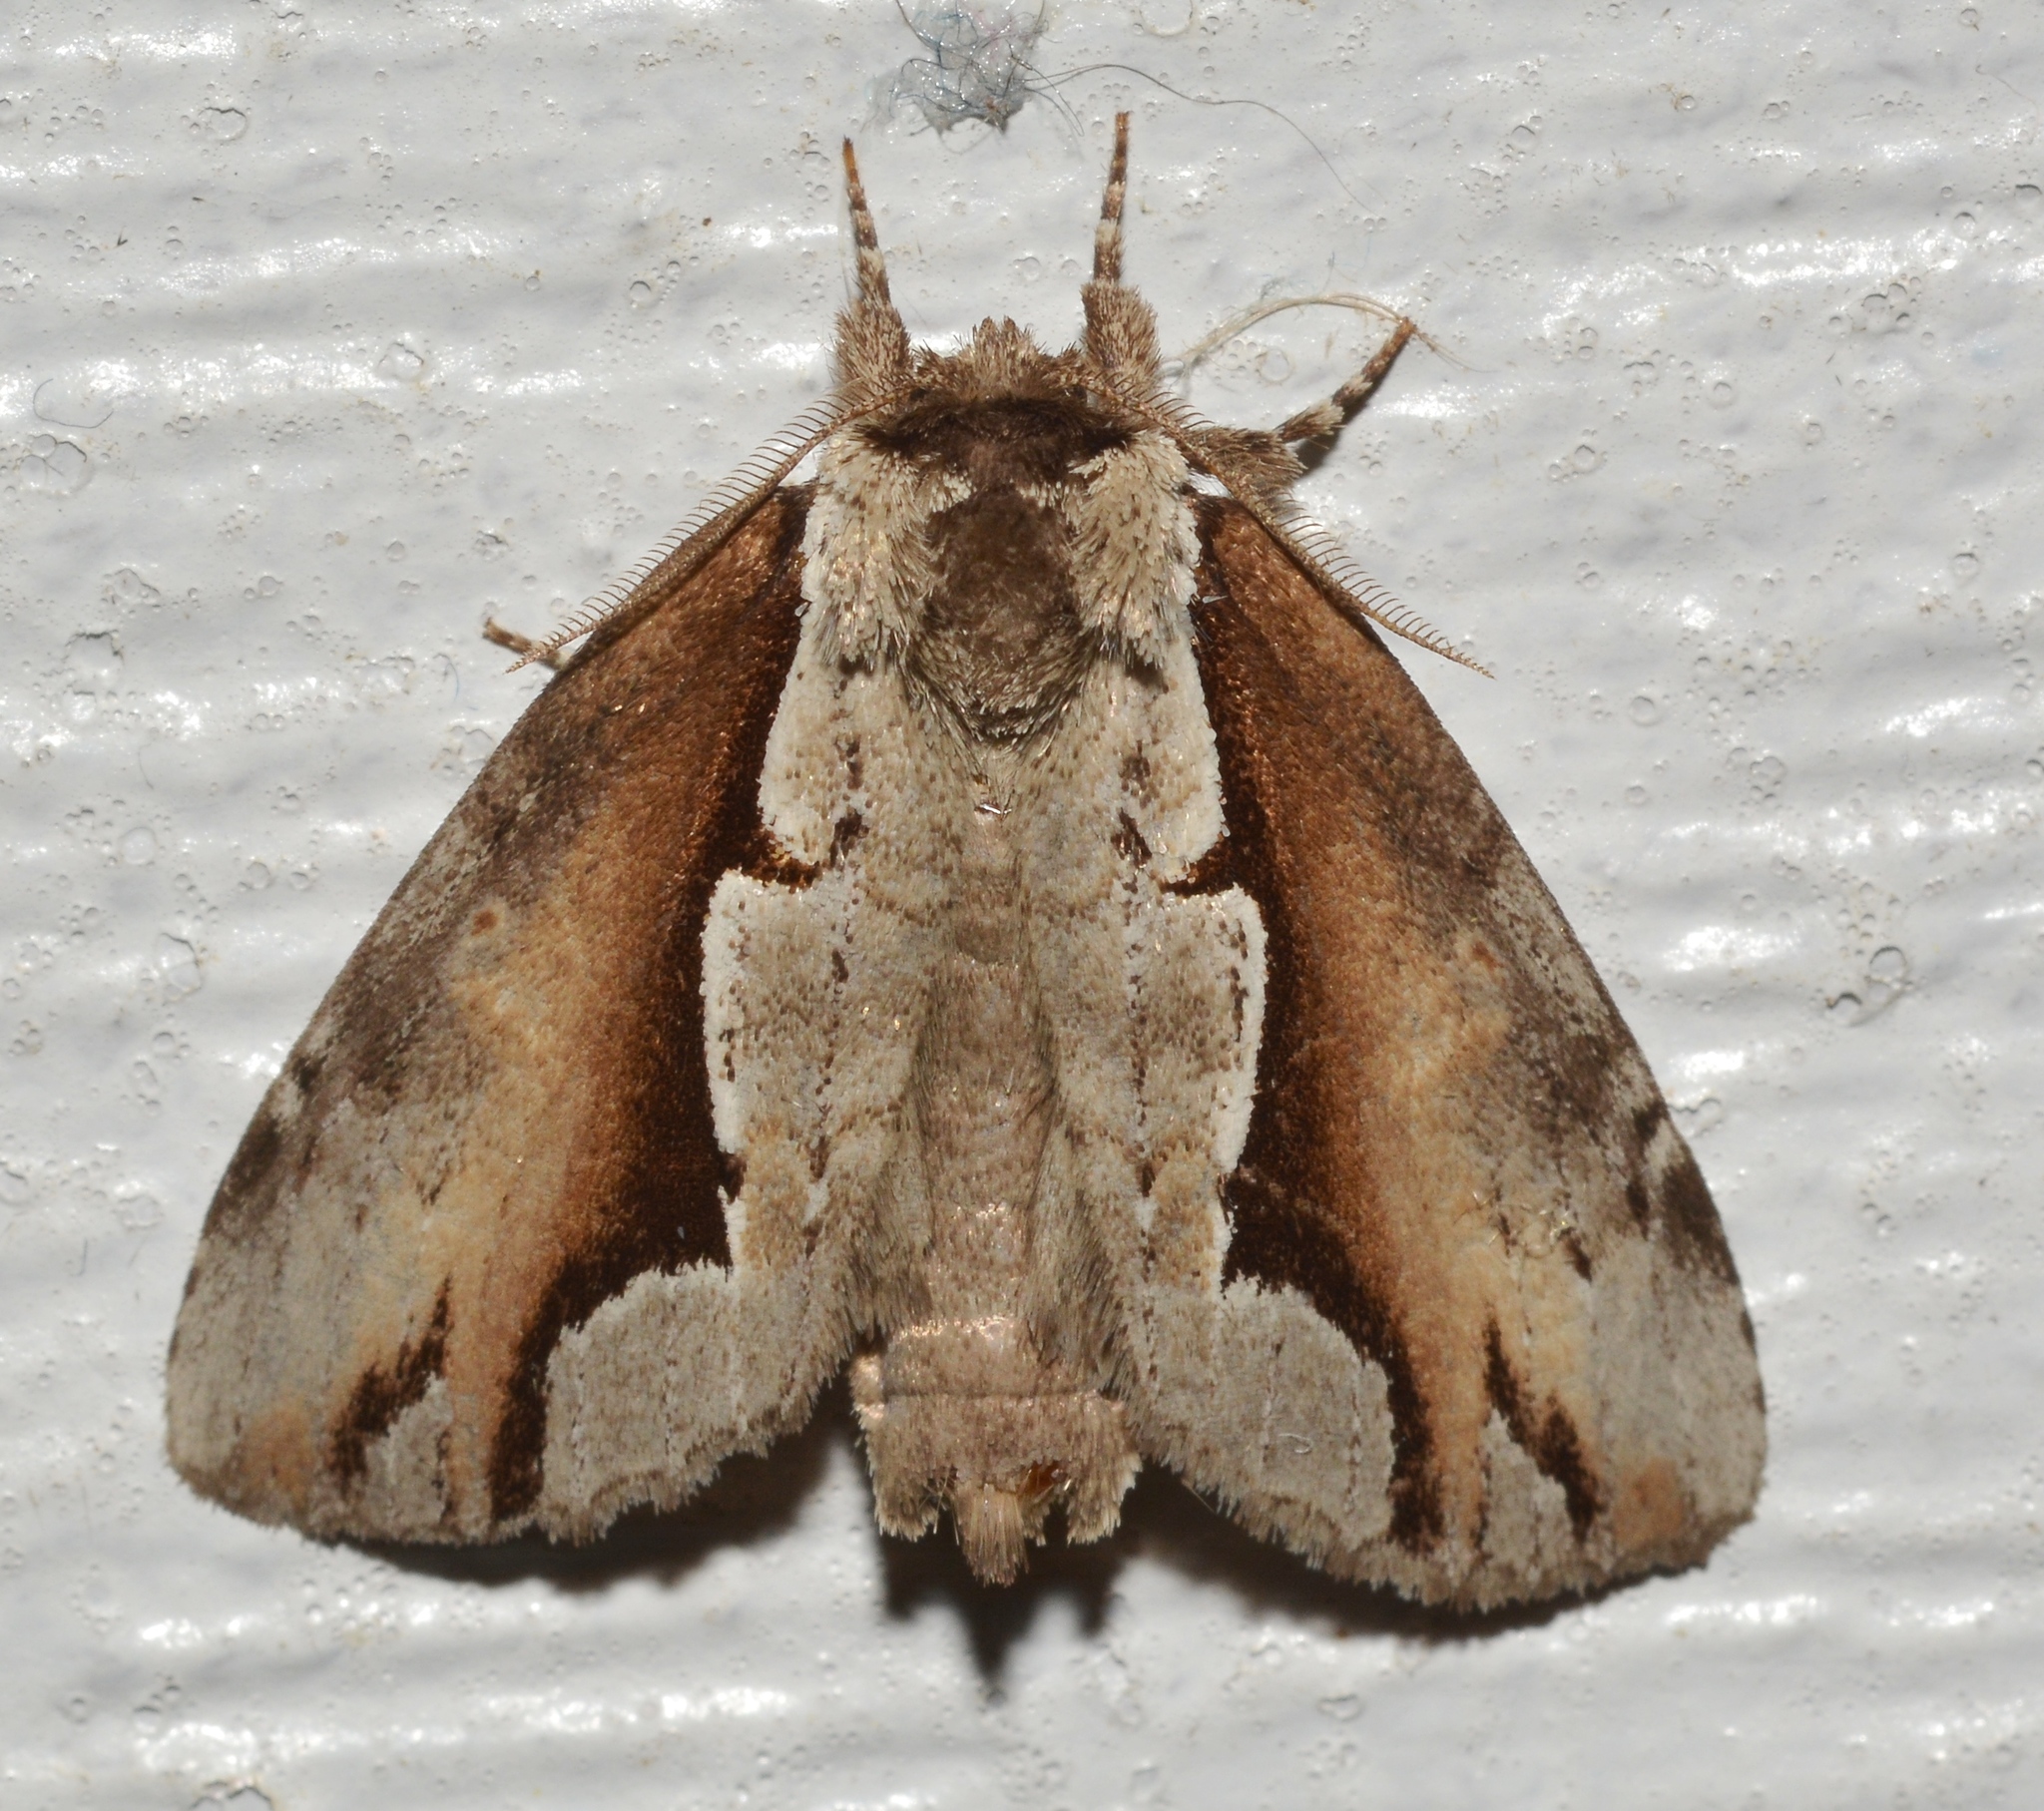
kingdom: Animalia
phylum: Arthropoda
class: Insecta
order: Lepidoptera
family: Notodontidae
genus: Nerice
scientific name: Nerice bidentata
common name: Double-toothed prominent
